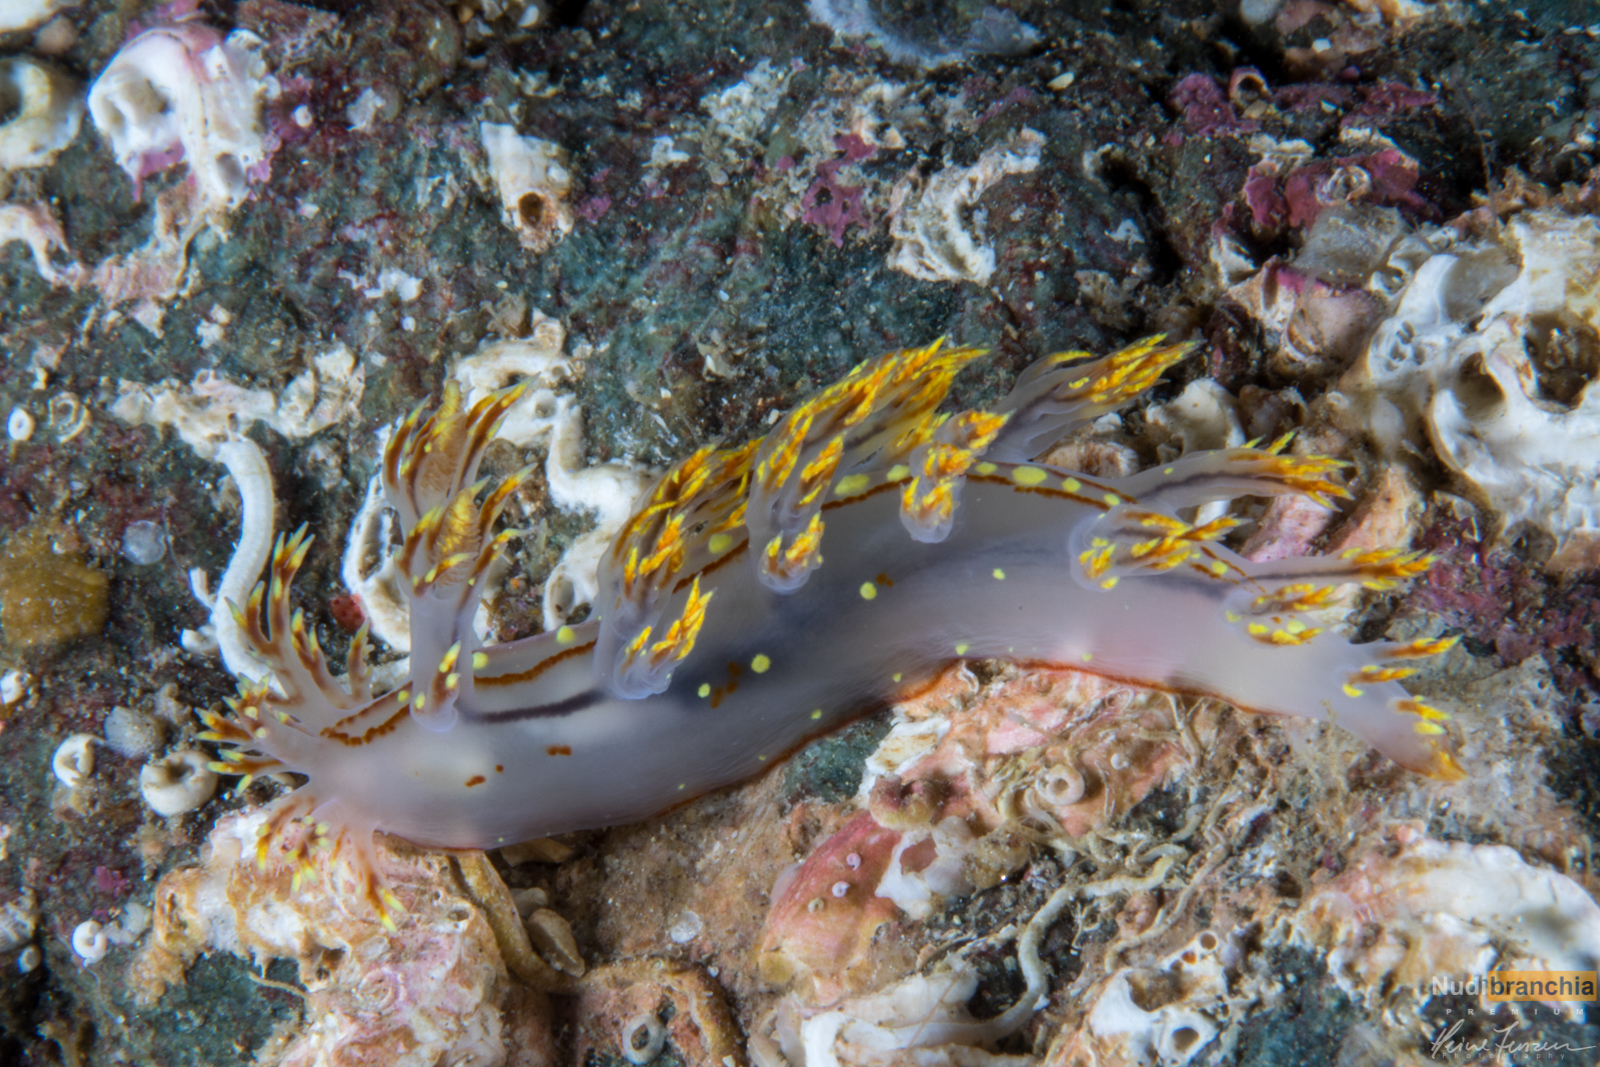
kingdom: Animalia
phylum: Mollusca
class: Gastropoda
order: Nudibranchia
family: Dendronotidae
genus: Dendronotus
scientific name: Dendronotus yrjargul
